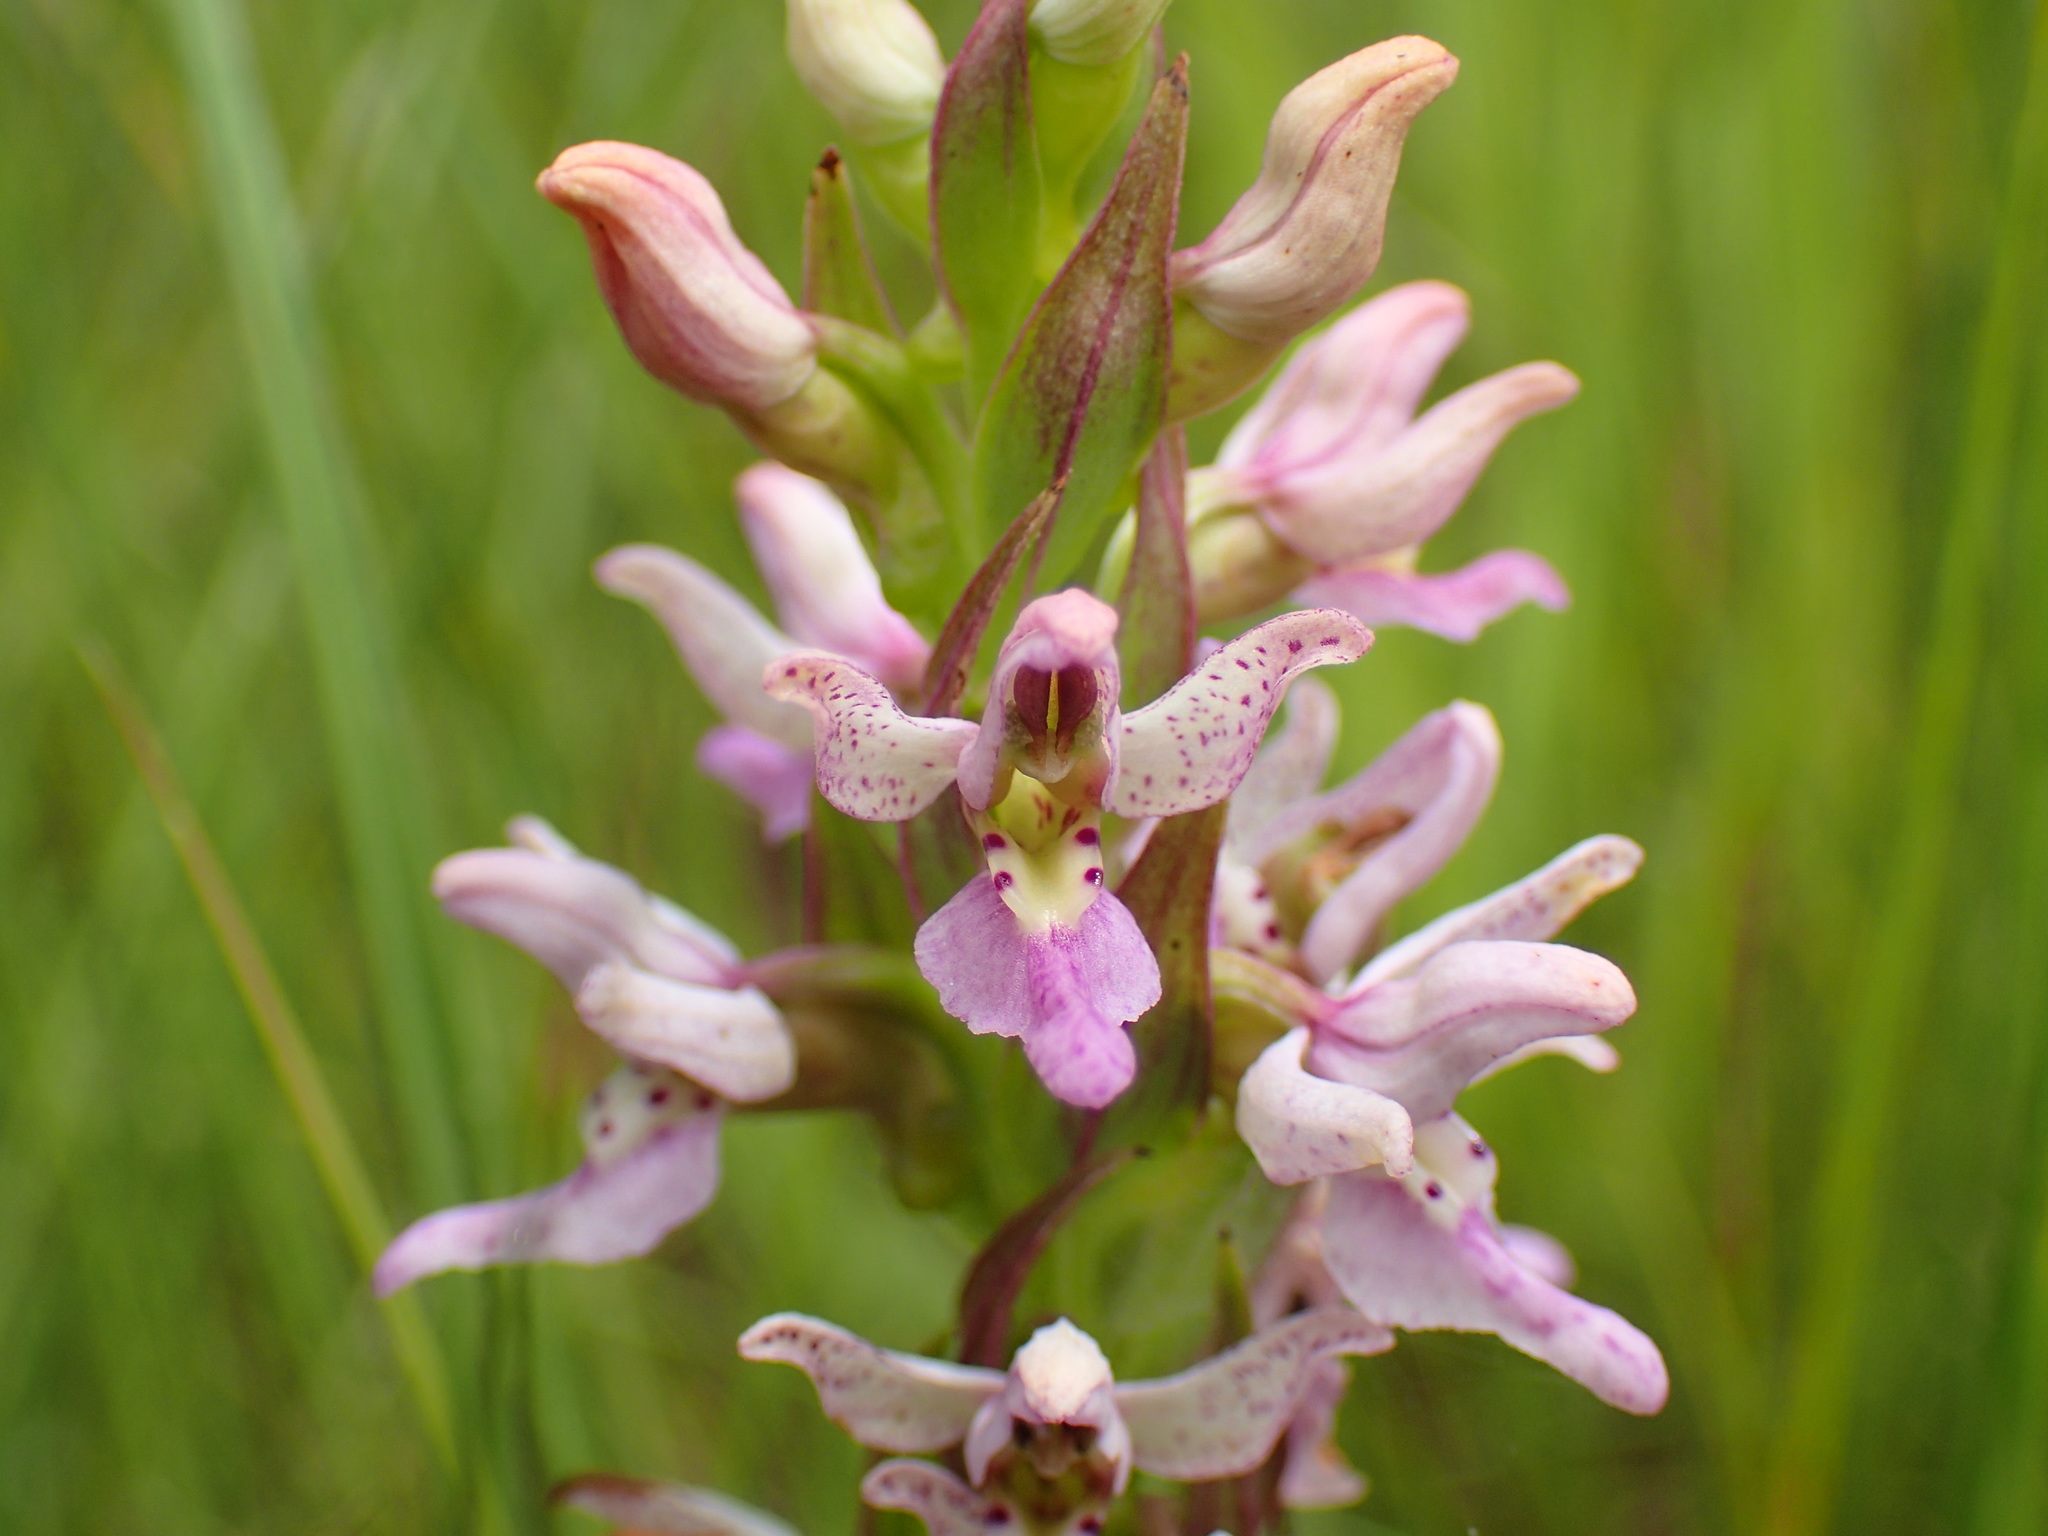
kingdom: Plantae
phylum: Tracheophyta
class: Liliopsida
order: Asparagales
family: Orchidaceae
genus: Brachycorythis
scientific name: Brachycorythis tenuior
